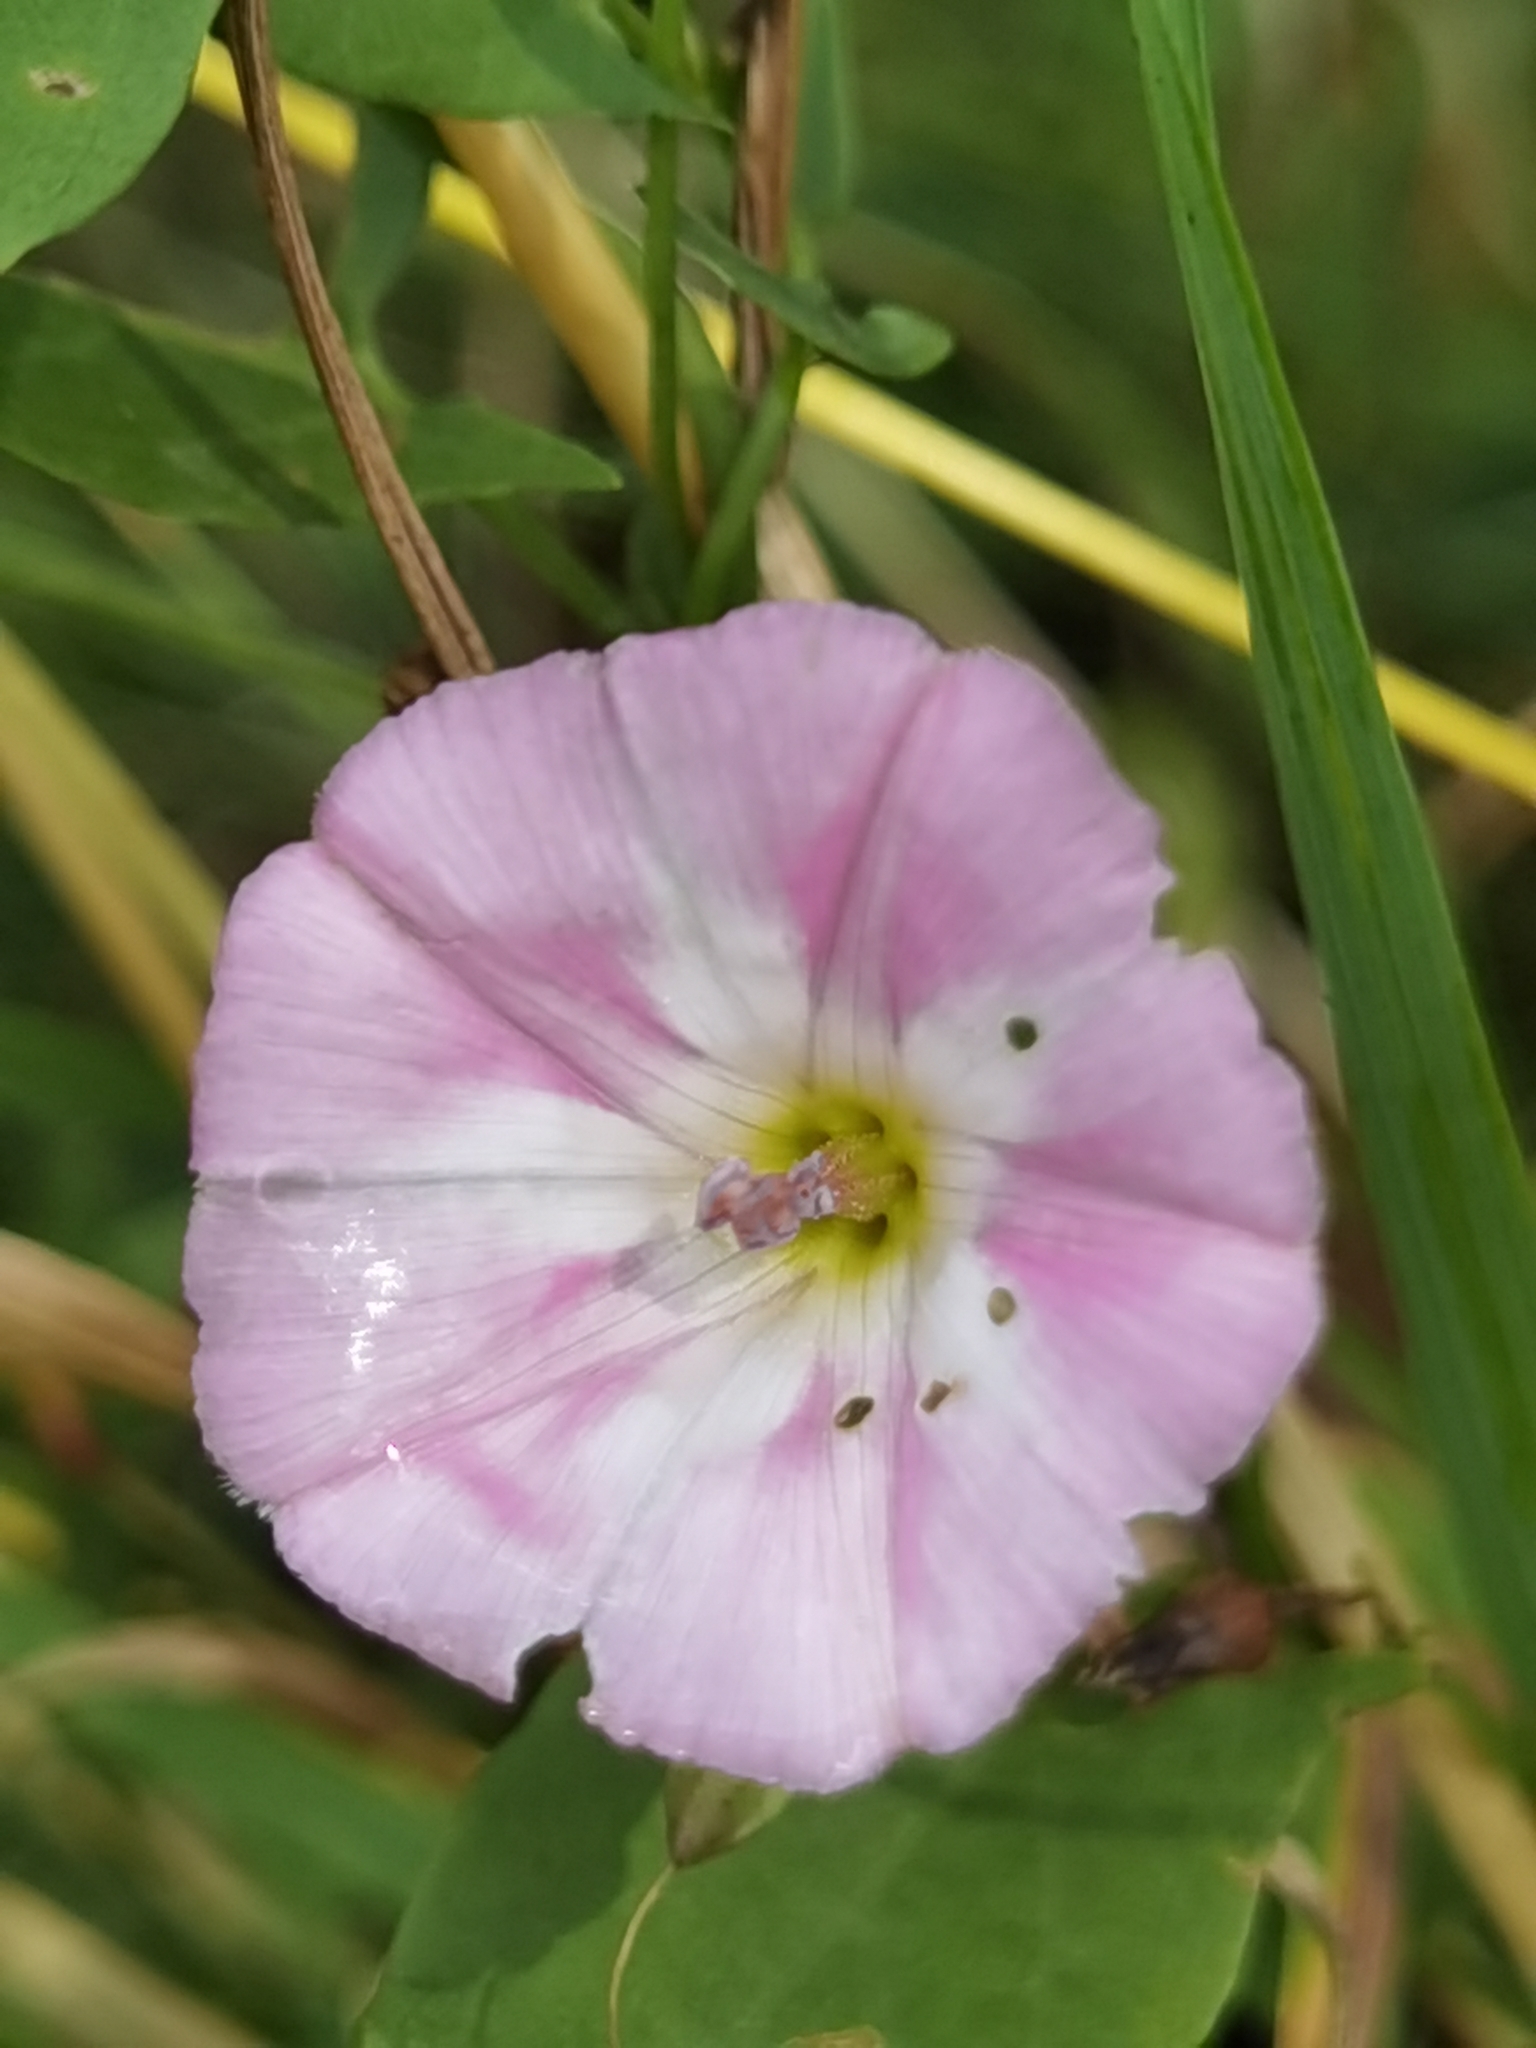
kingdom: Plantae
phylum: Tracheophyta
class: Magnoliopsida
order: Solanales
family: Convolvulaceae
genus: Convolvulus
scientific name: Convolvulus arvensis
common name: Field bindweed
